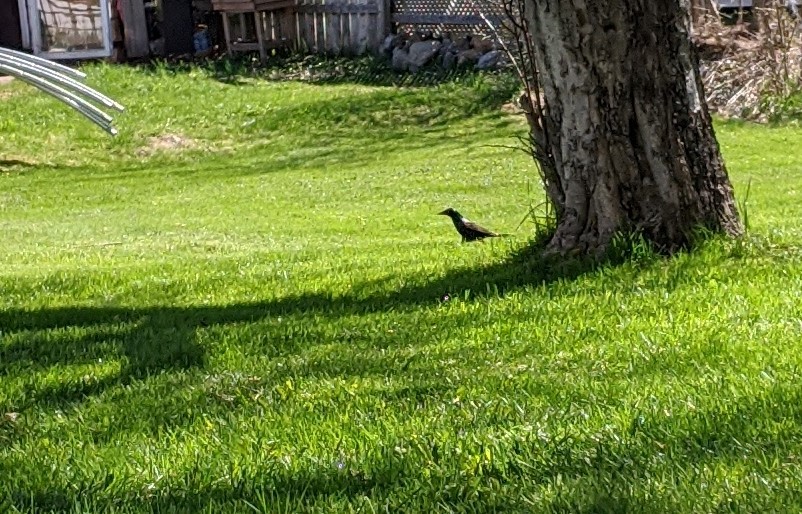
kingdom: Animalia
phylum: Chordata
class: Aves
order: Passeriformes
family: Icteridae
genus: Quiscalus
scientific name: Quiscalus quiscula
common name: Common grackle
